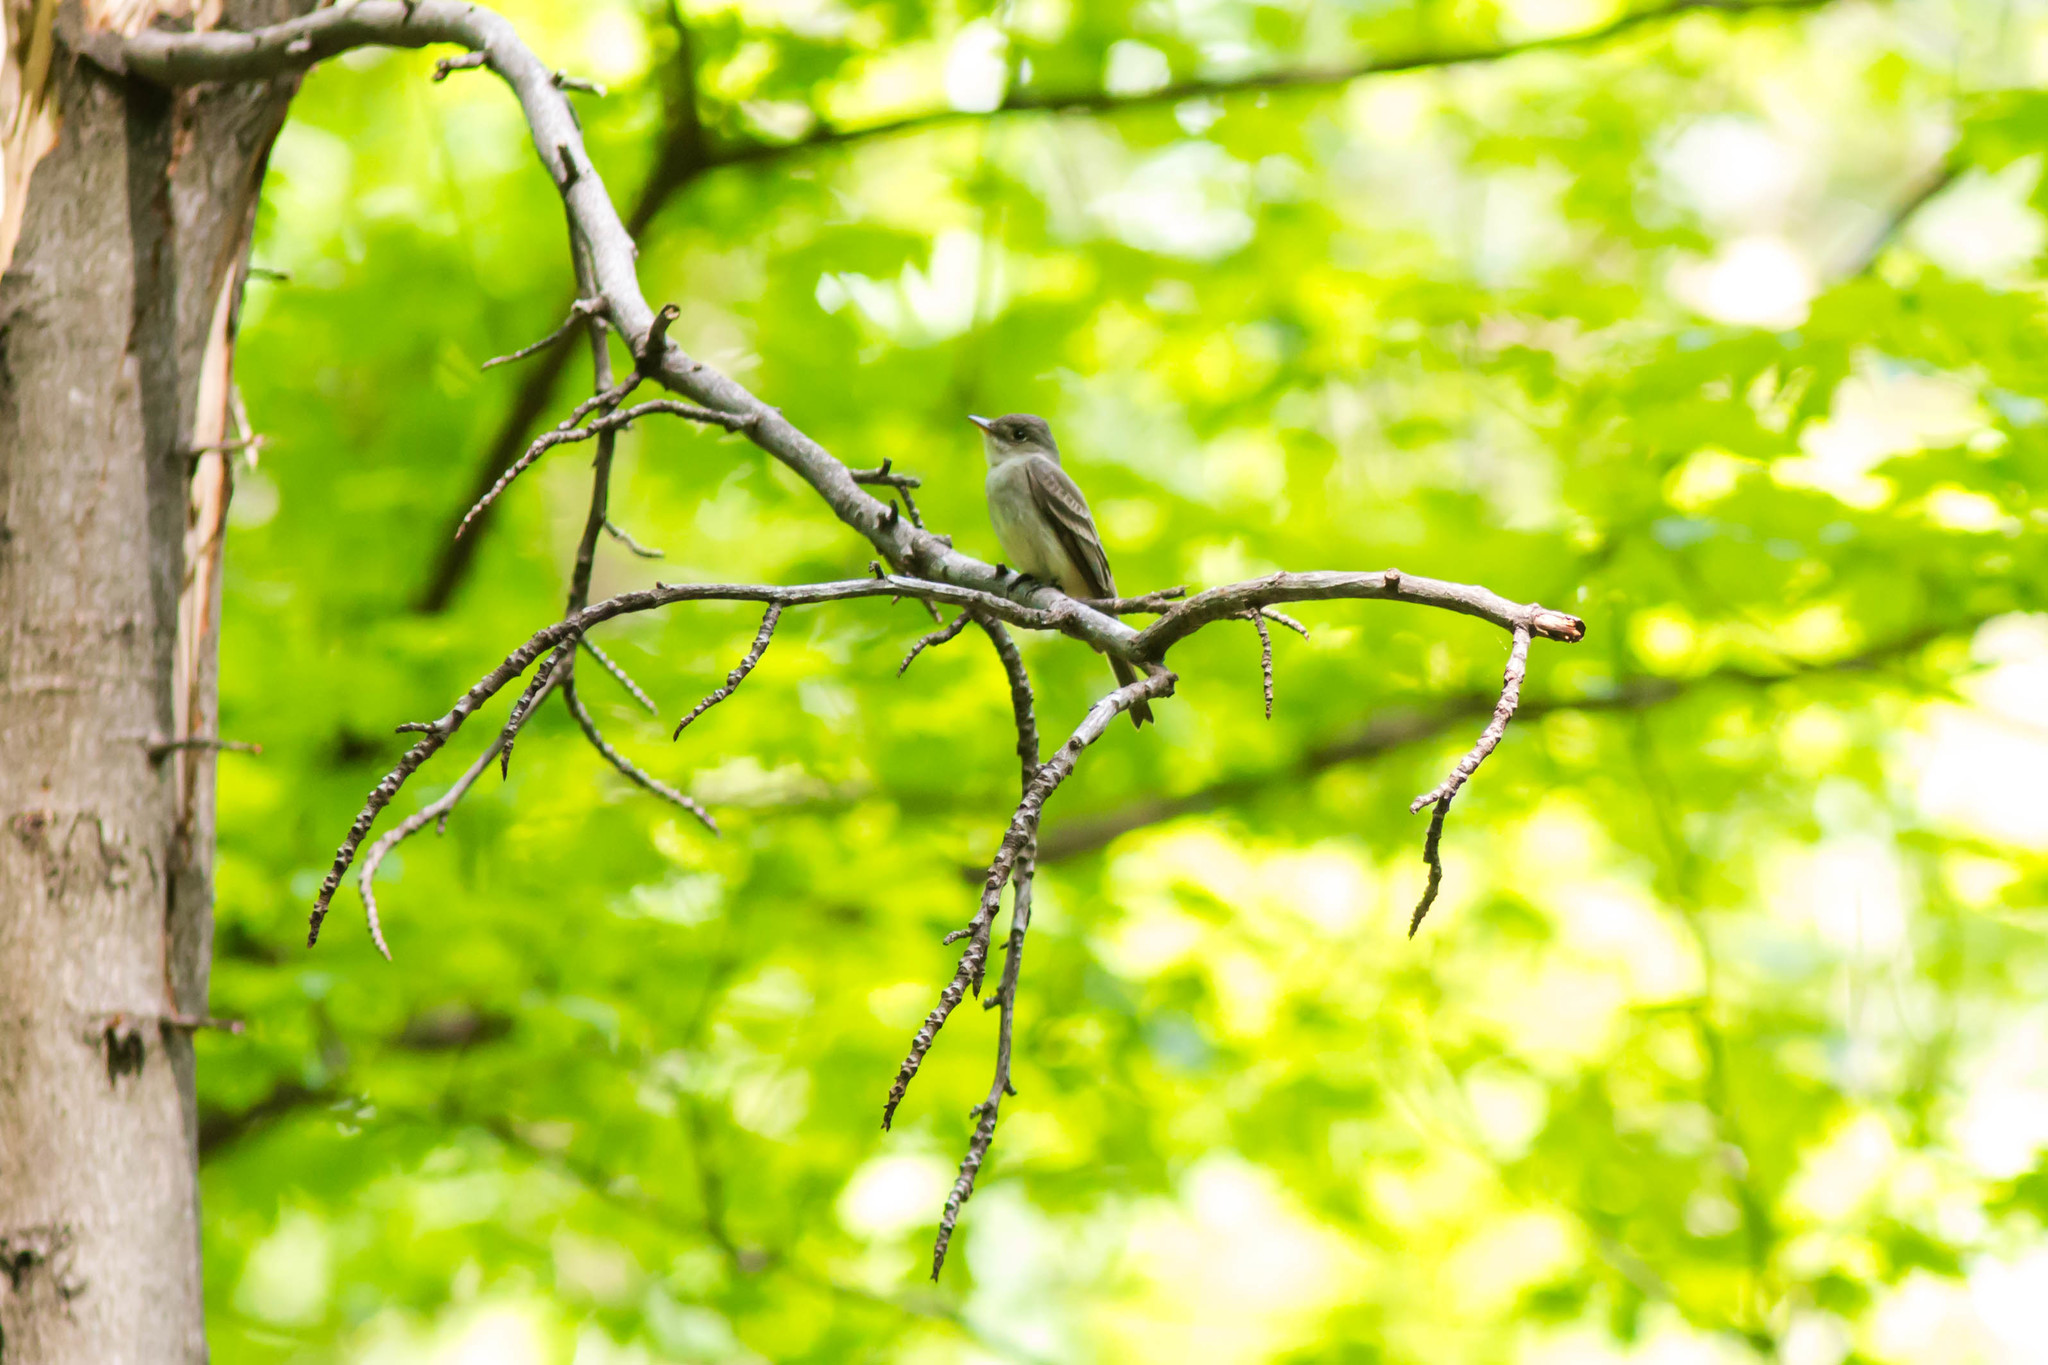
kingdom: Animalia
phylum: Chordata
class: Aves
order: Passeriformes
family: Tyrannidae
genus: Contopus
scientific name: Contopus virens
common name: Eastern wood-pewee
